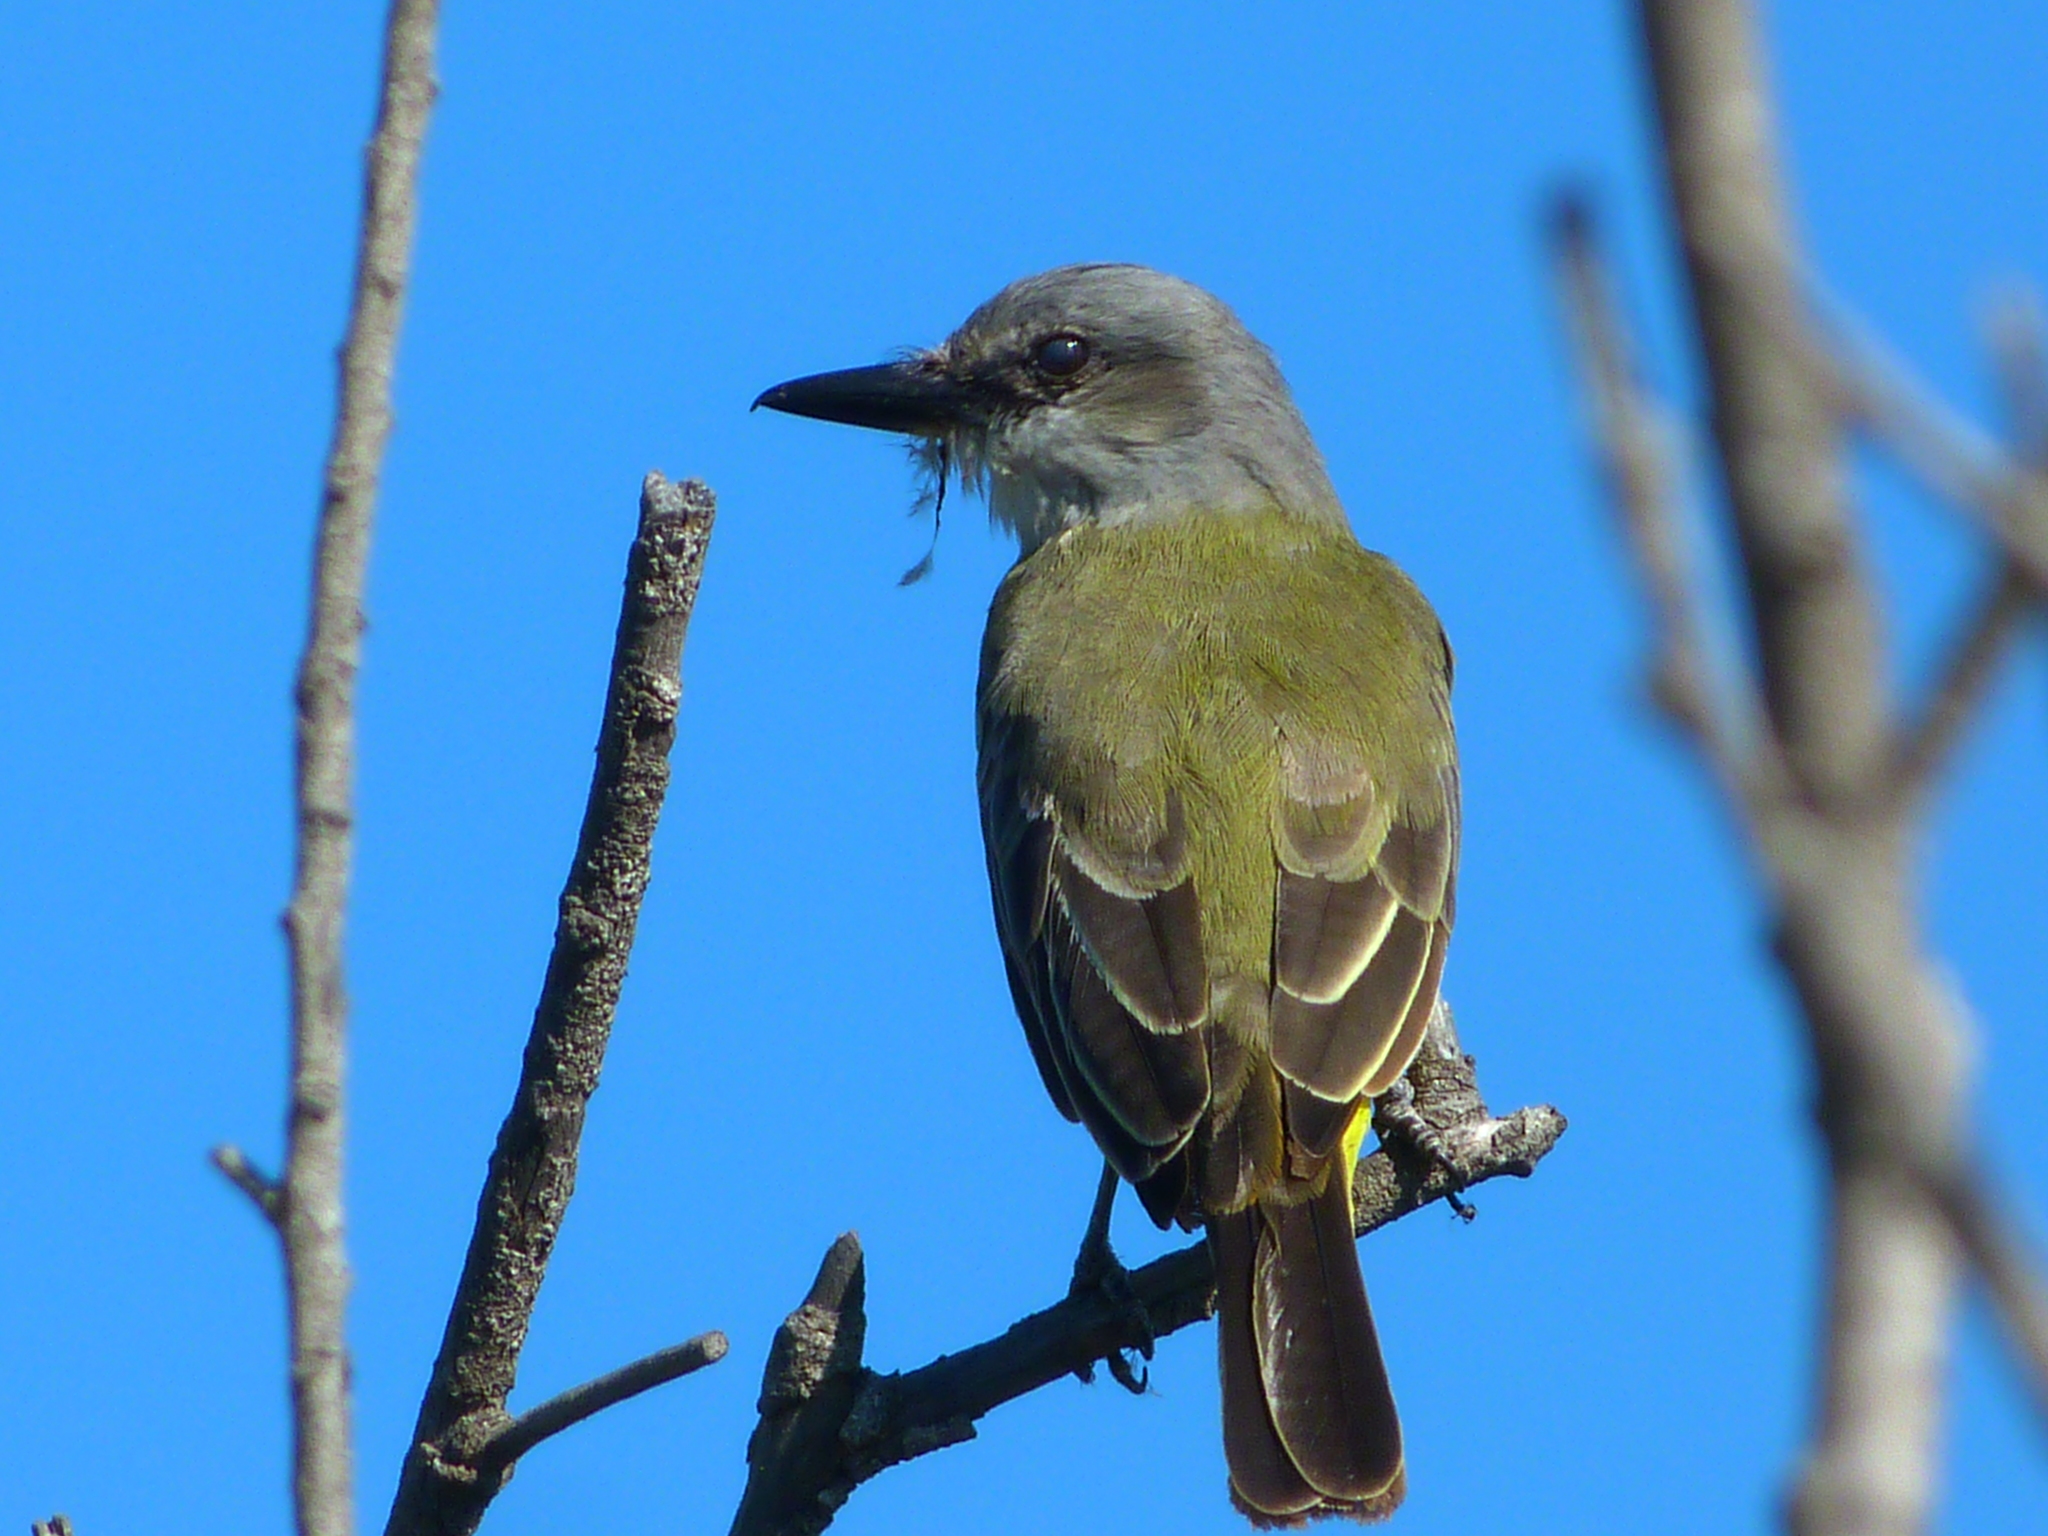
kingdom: Animalia
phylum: Chordata
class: Aves
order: Passeriformes
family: Tyrannidae
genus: Tyrannus
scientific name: Tyrannus melancholicus
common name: Tropical kingbird
